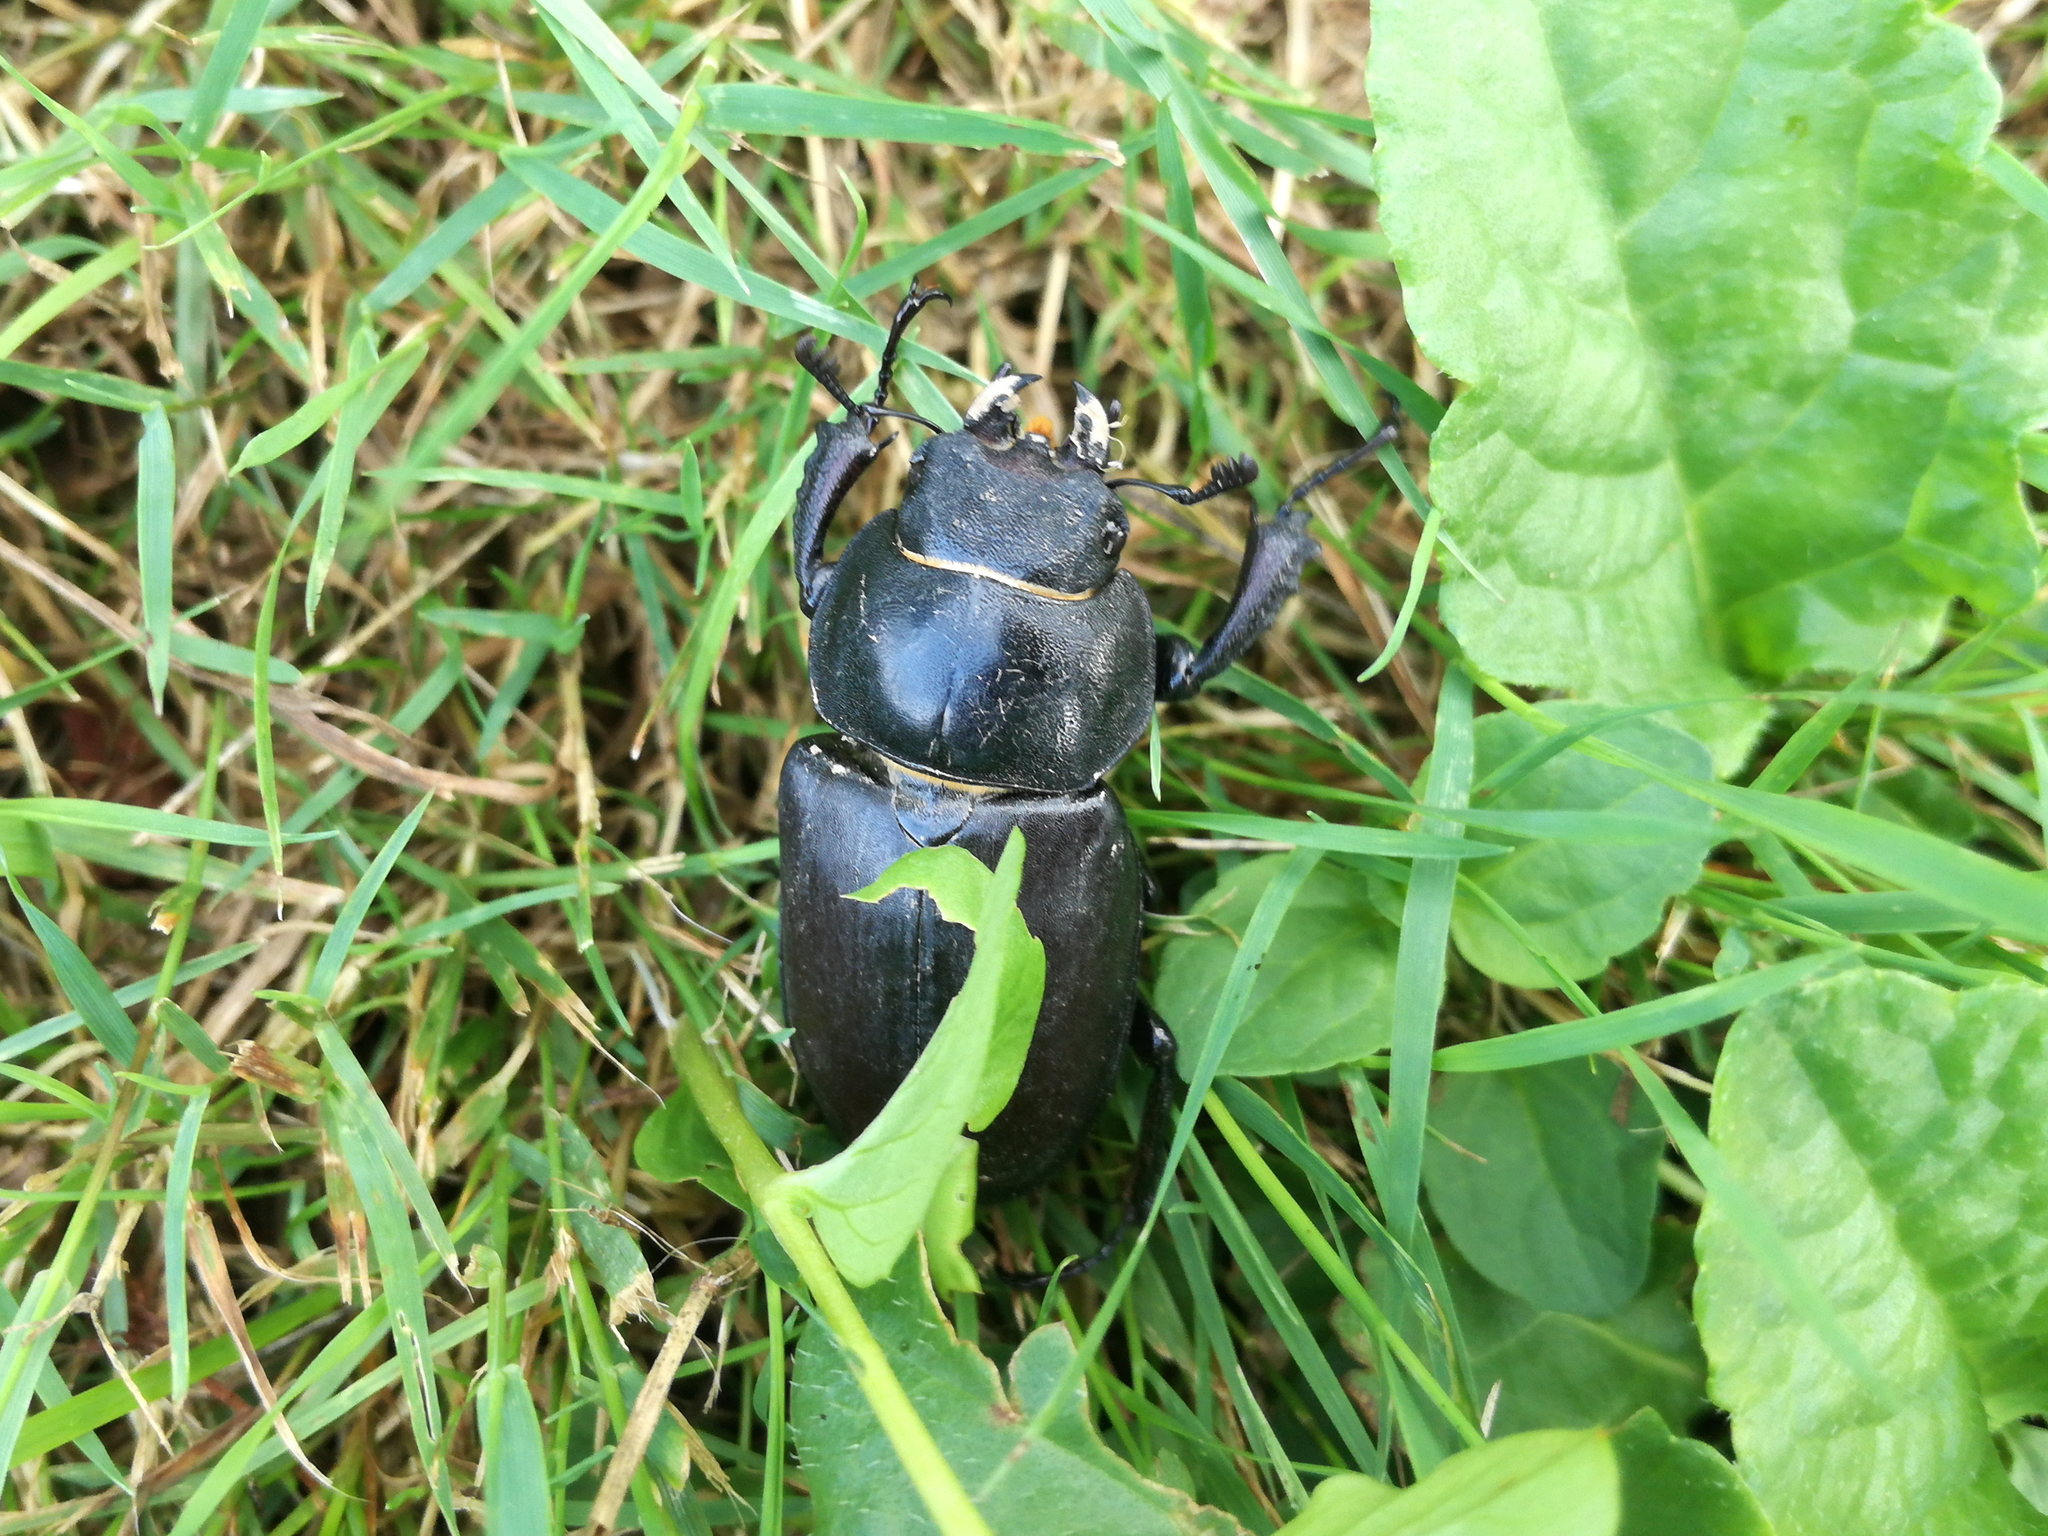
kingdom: Animalia
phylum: Arthropoda
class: Insecta
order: Coleoptera
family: Lucanidae
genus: Lucanus
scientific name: Lucanus cervus
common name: Stag beetle
